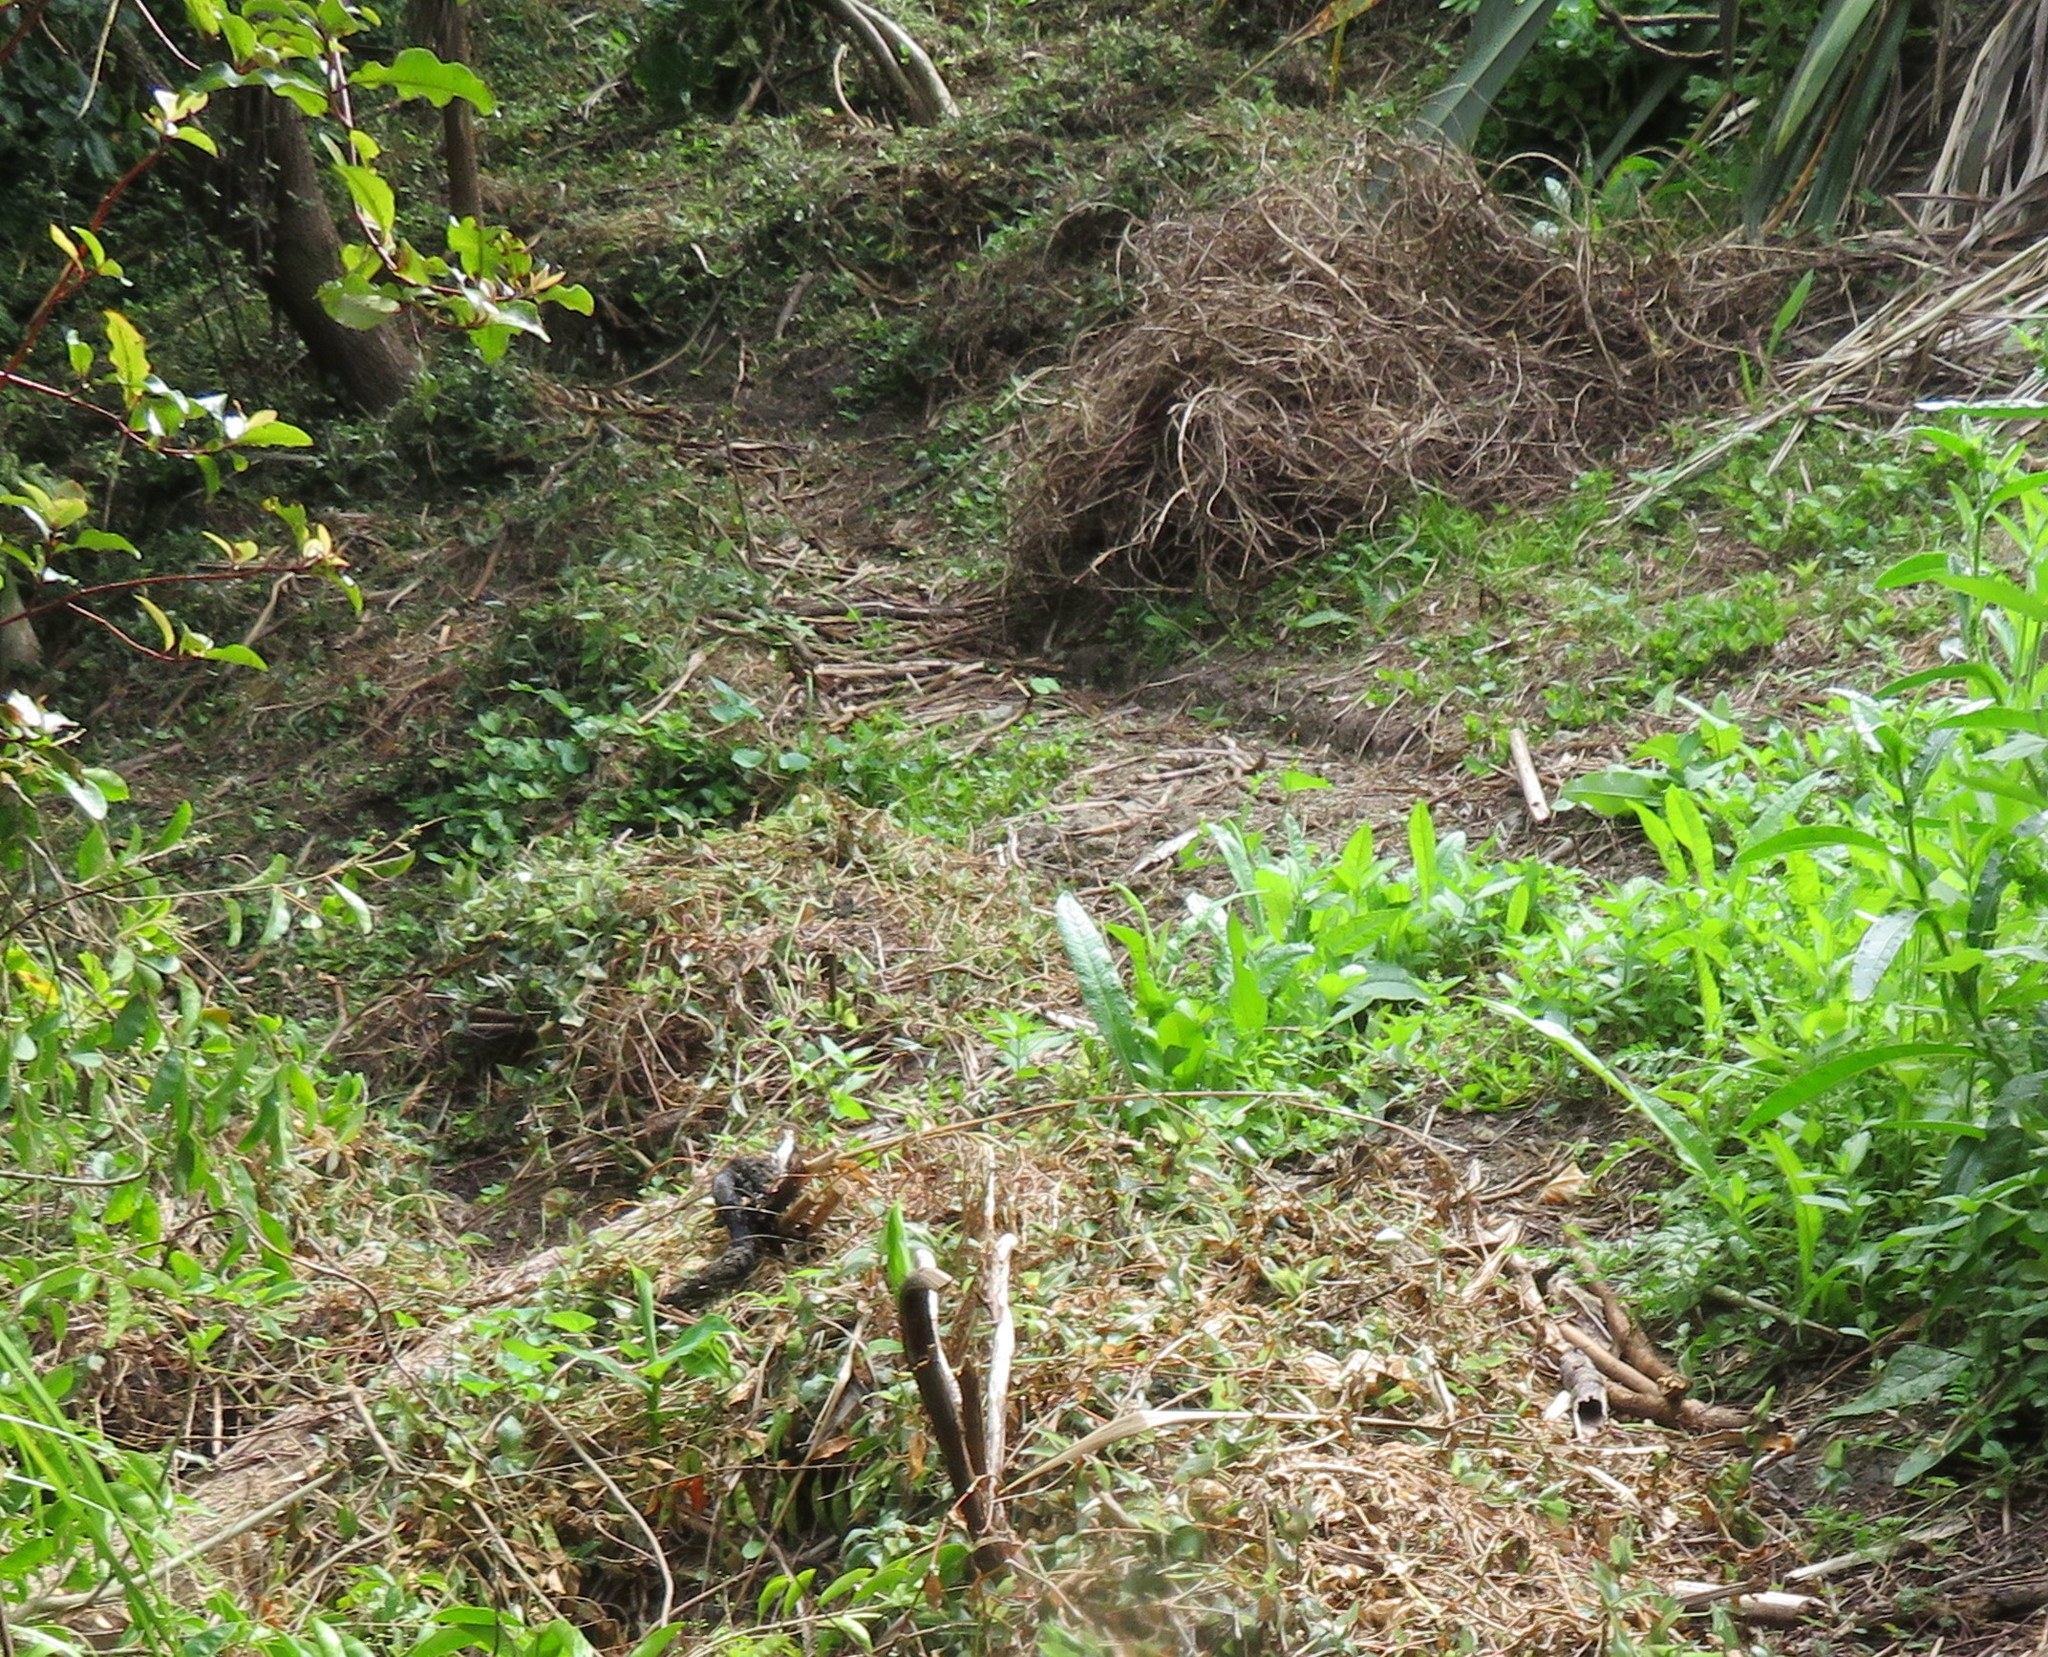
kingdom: Plantae
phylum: Tracheophyta
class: Liliopsida
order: Commelinales
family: Commelinaceae
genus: Tradescantia
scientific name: Tradescantia fluminensis
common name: Wandering-jew
